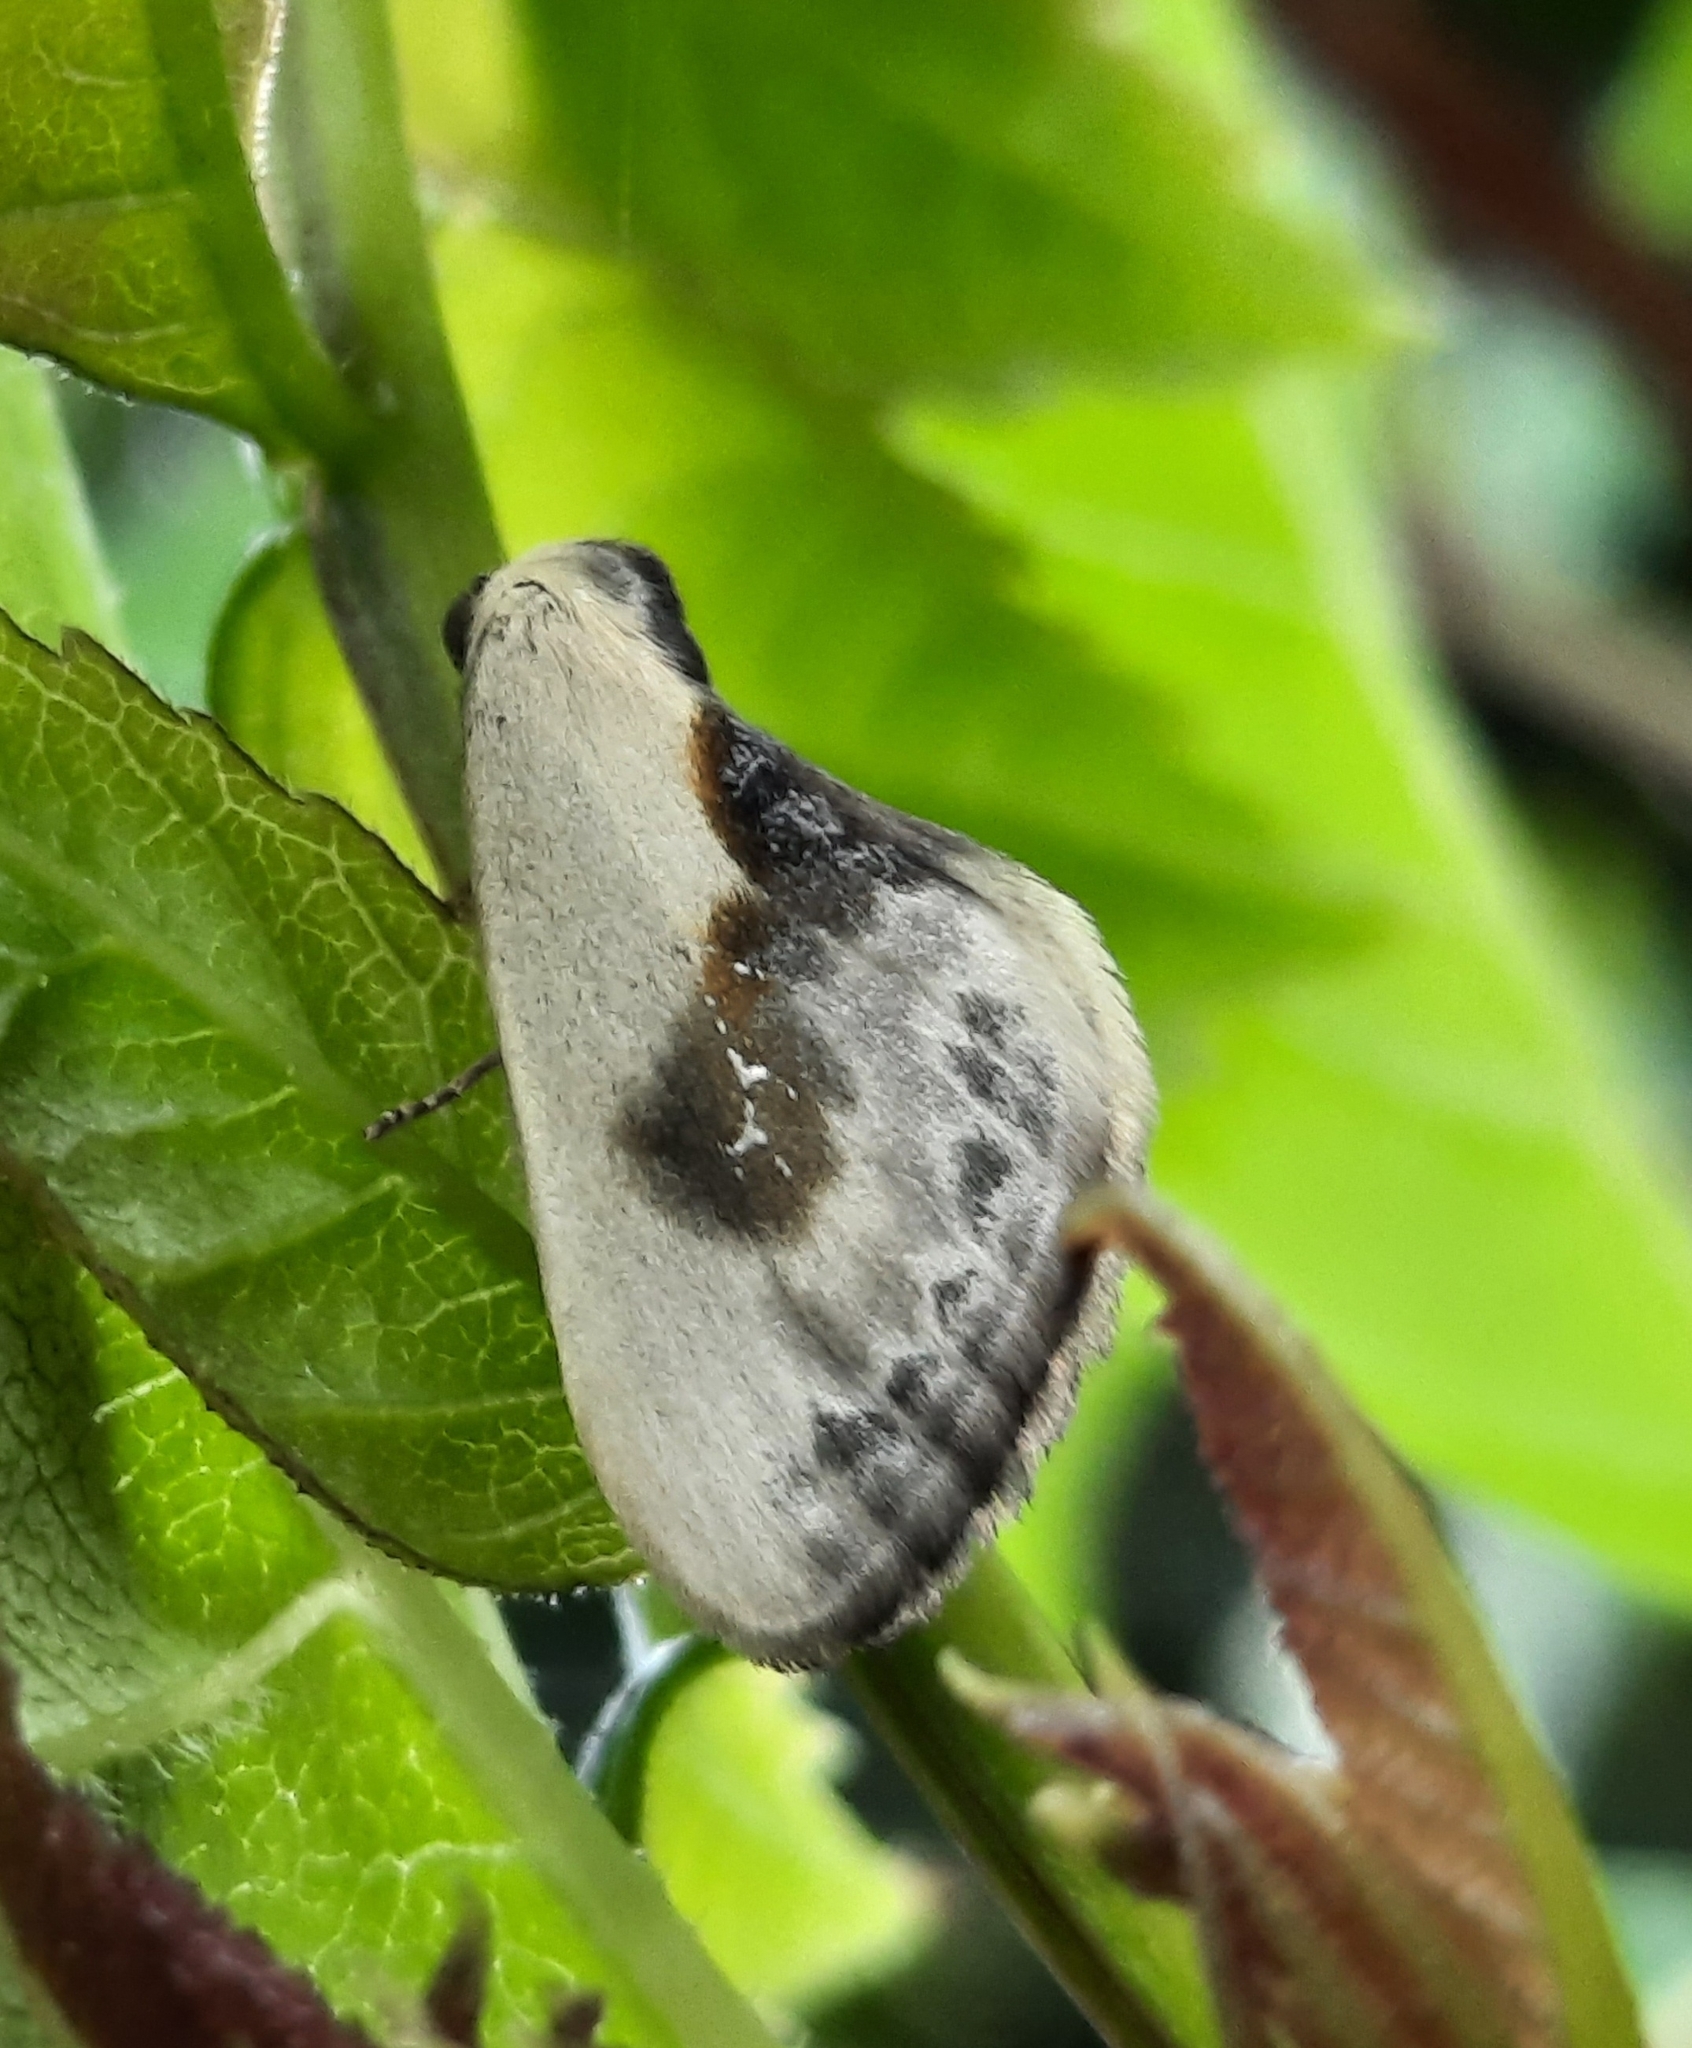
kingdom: Animalia
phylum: Arthropoda
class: Insecta
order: Lepidoptera
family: Drepanidae
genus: Cilix
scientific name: Cilix glaucata
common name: Chinese character
